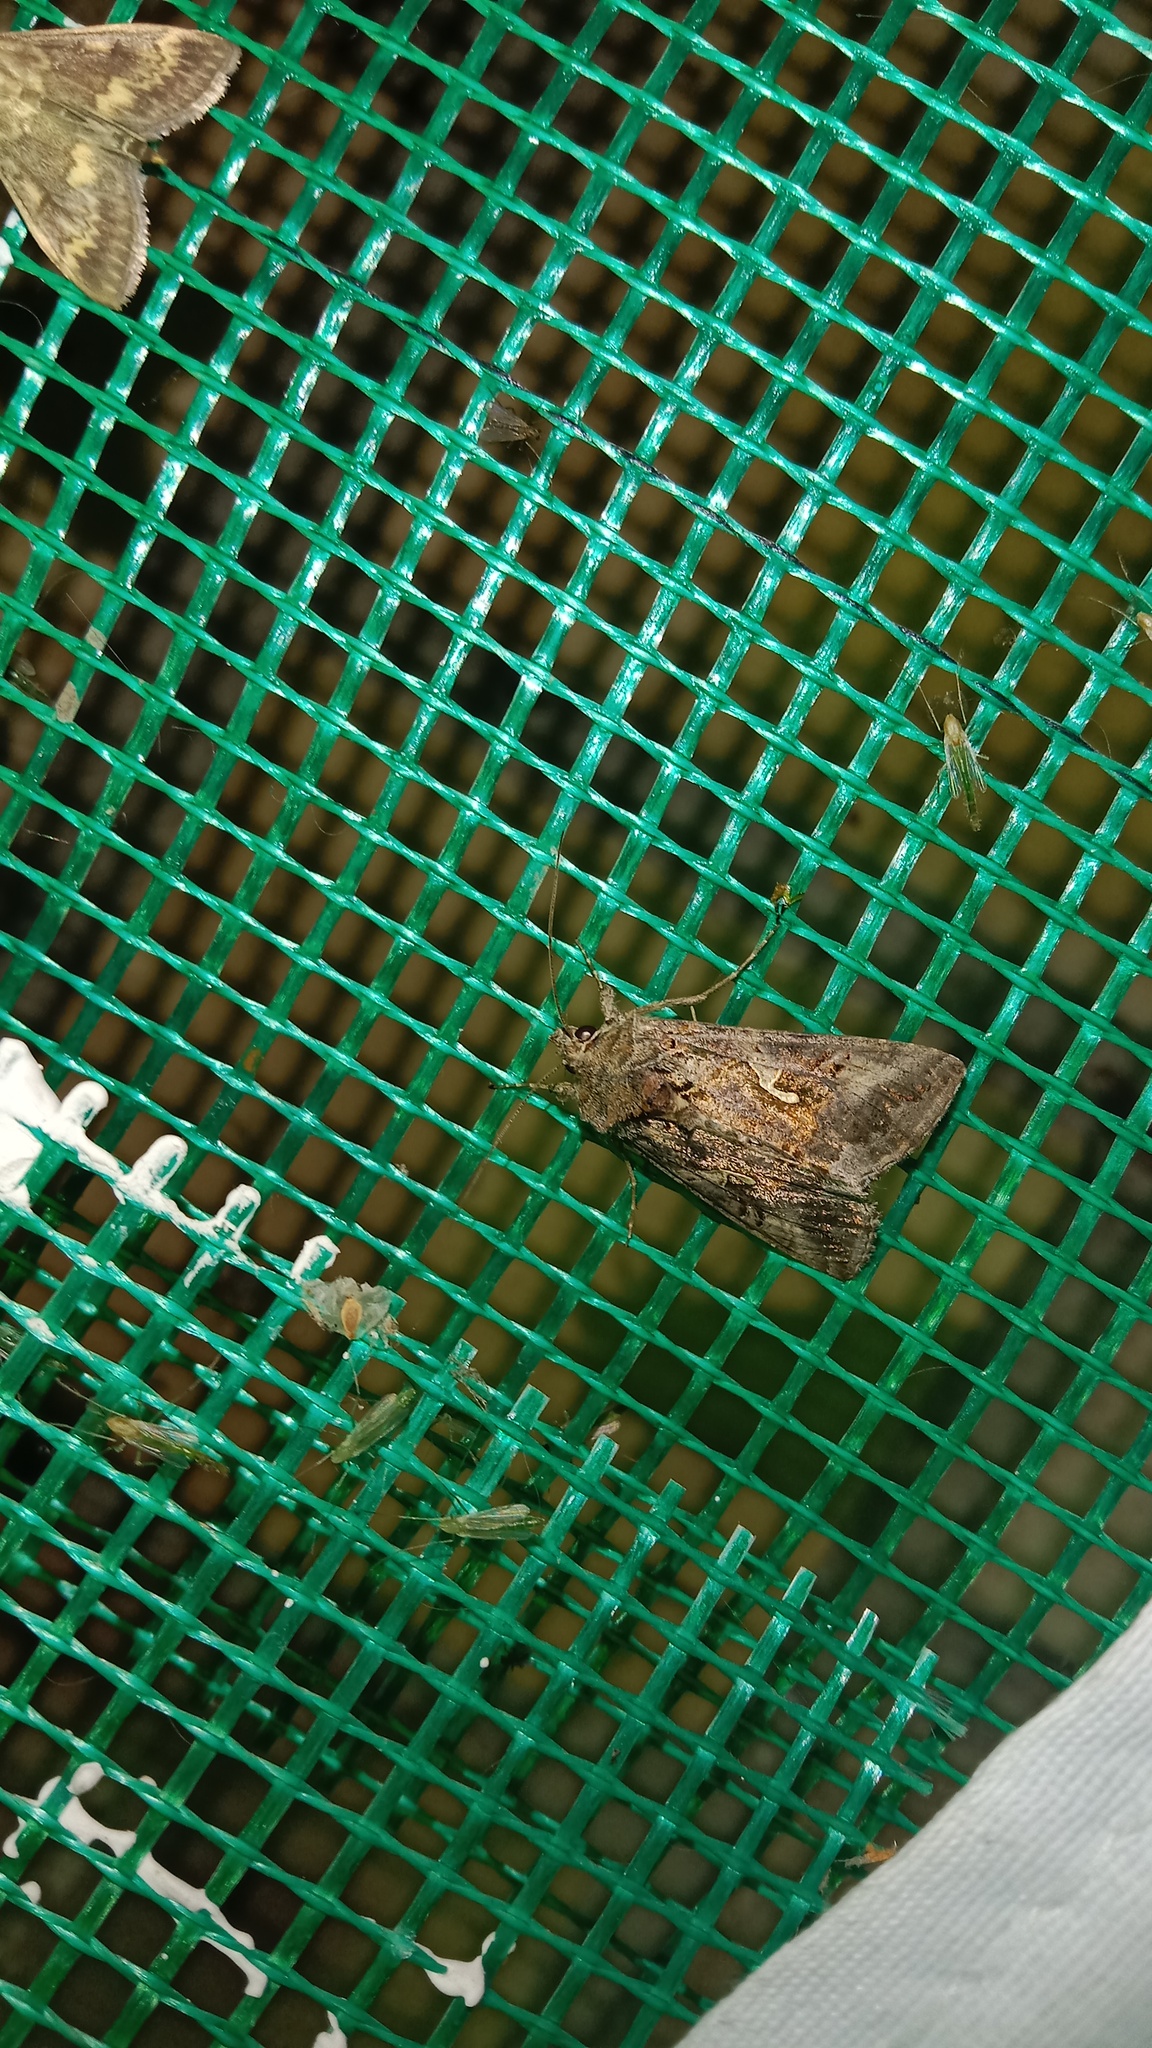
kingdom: Animalia
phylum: Arthropoda
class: Insecta
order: Lepidoptera
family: Noctuidae
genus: Autographa
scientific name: Autographa gamma
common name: Silver y
